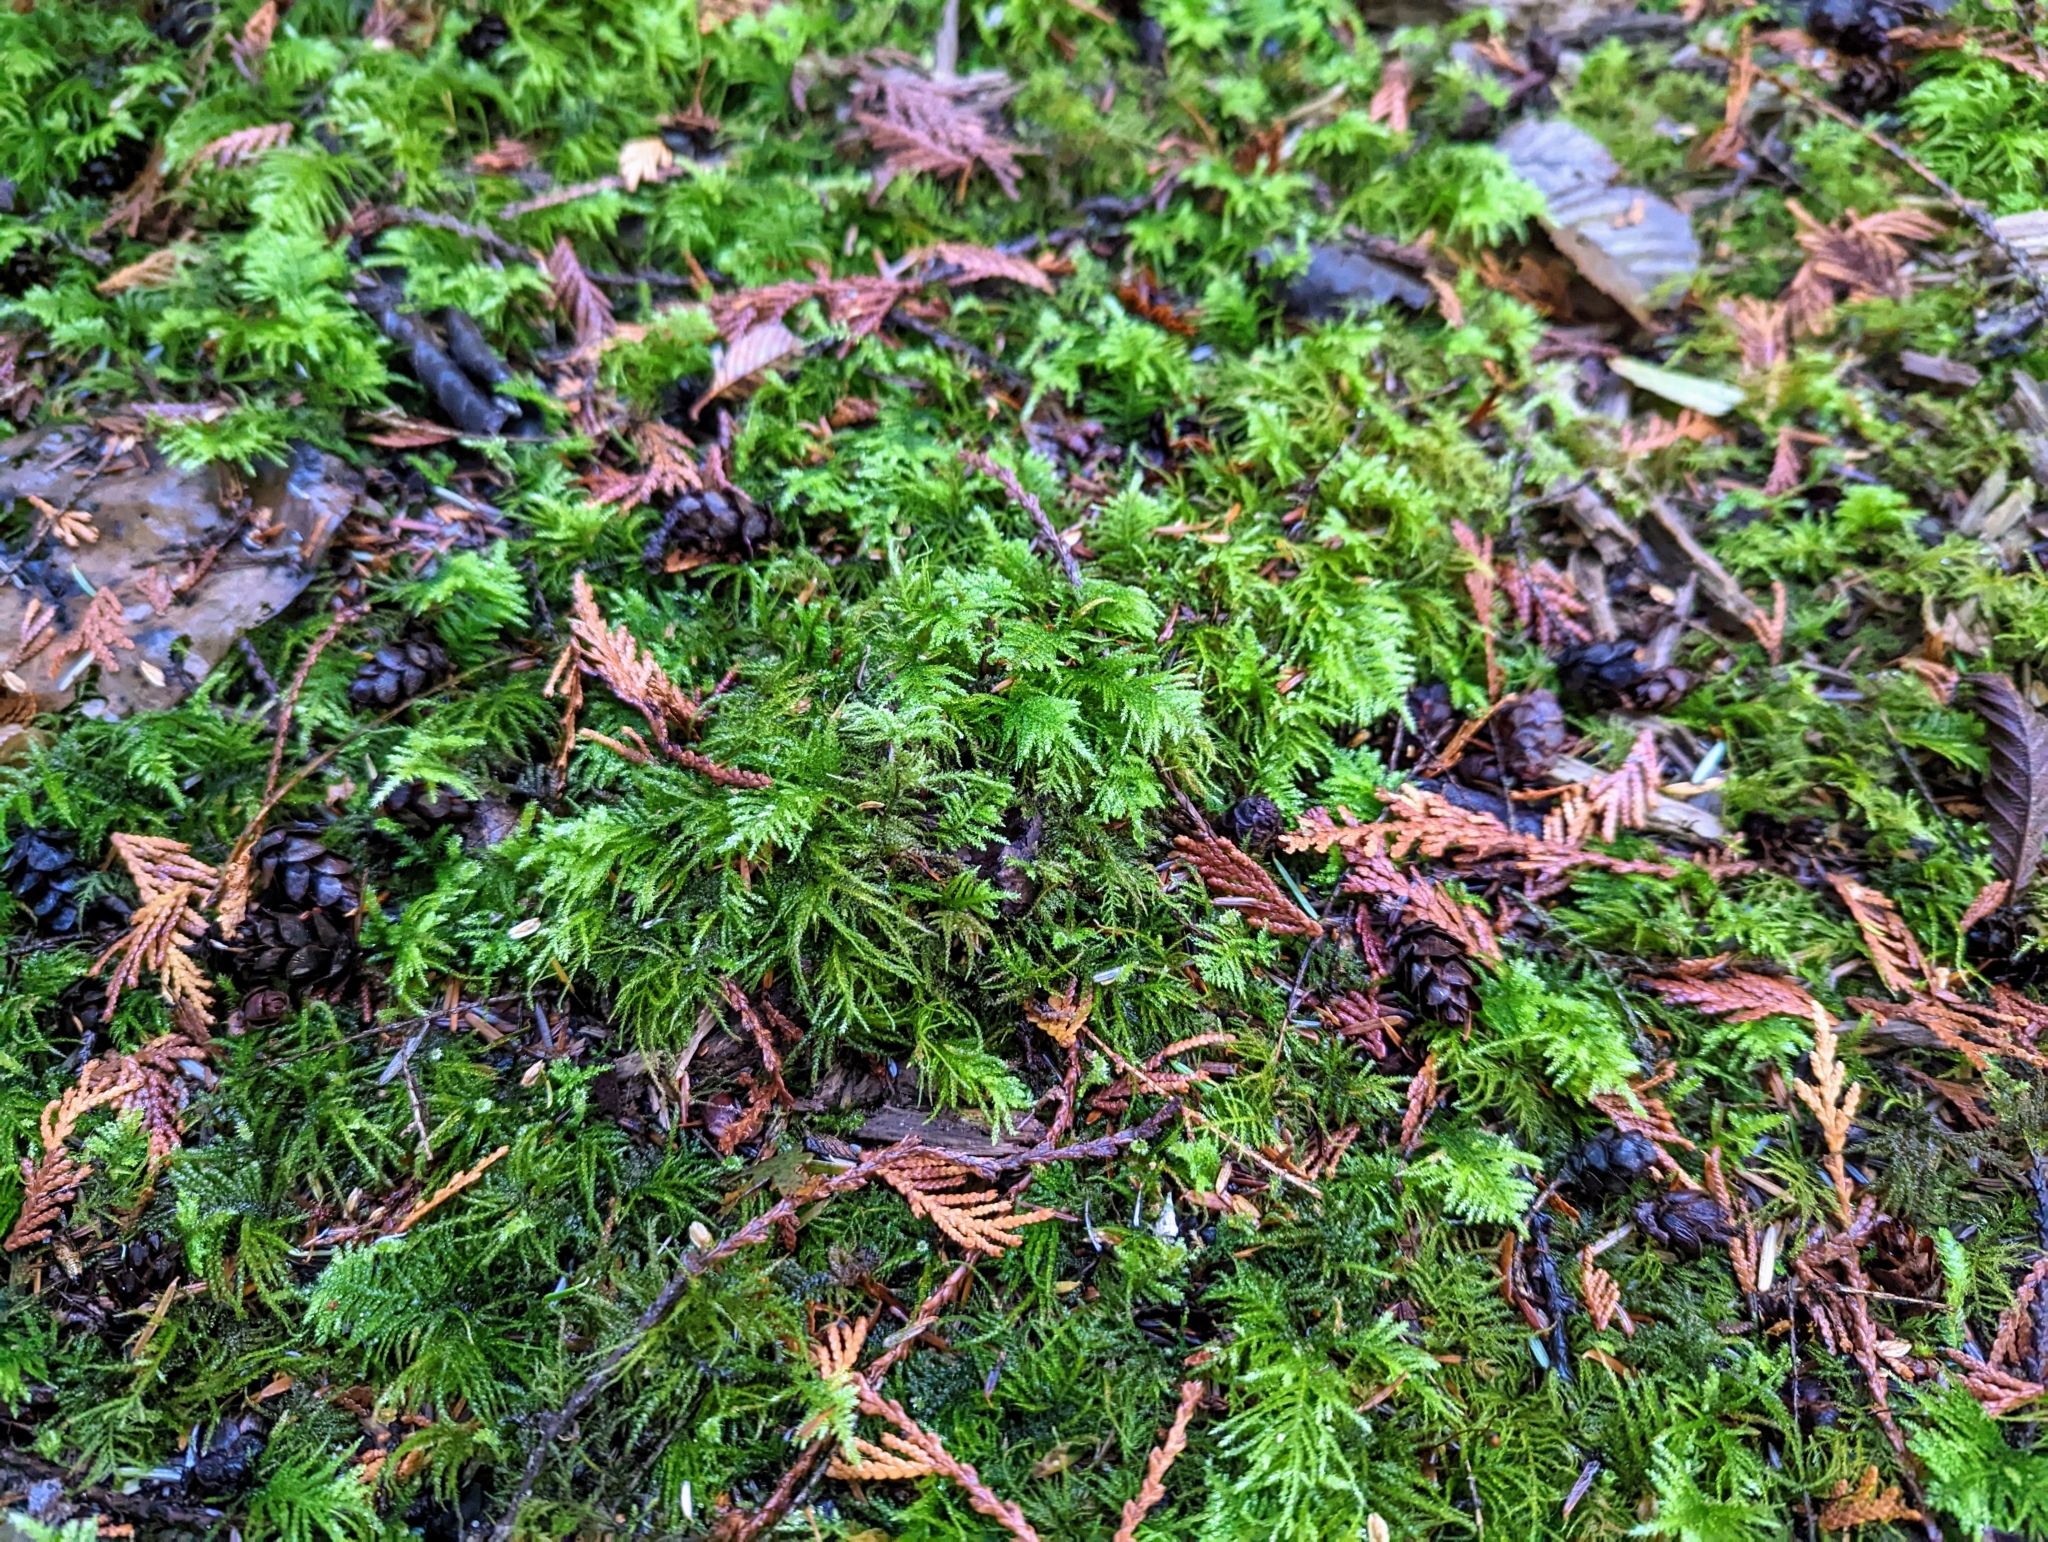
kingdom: Plantae
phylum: Bryophyta
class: Bryopsida
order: Hypnales
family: Brachytheciaceae
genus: Kindbergia
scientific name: Kindbergia oregana
